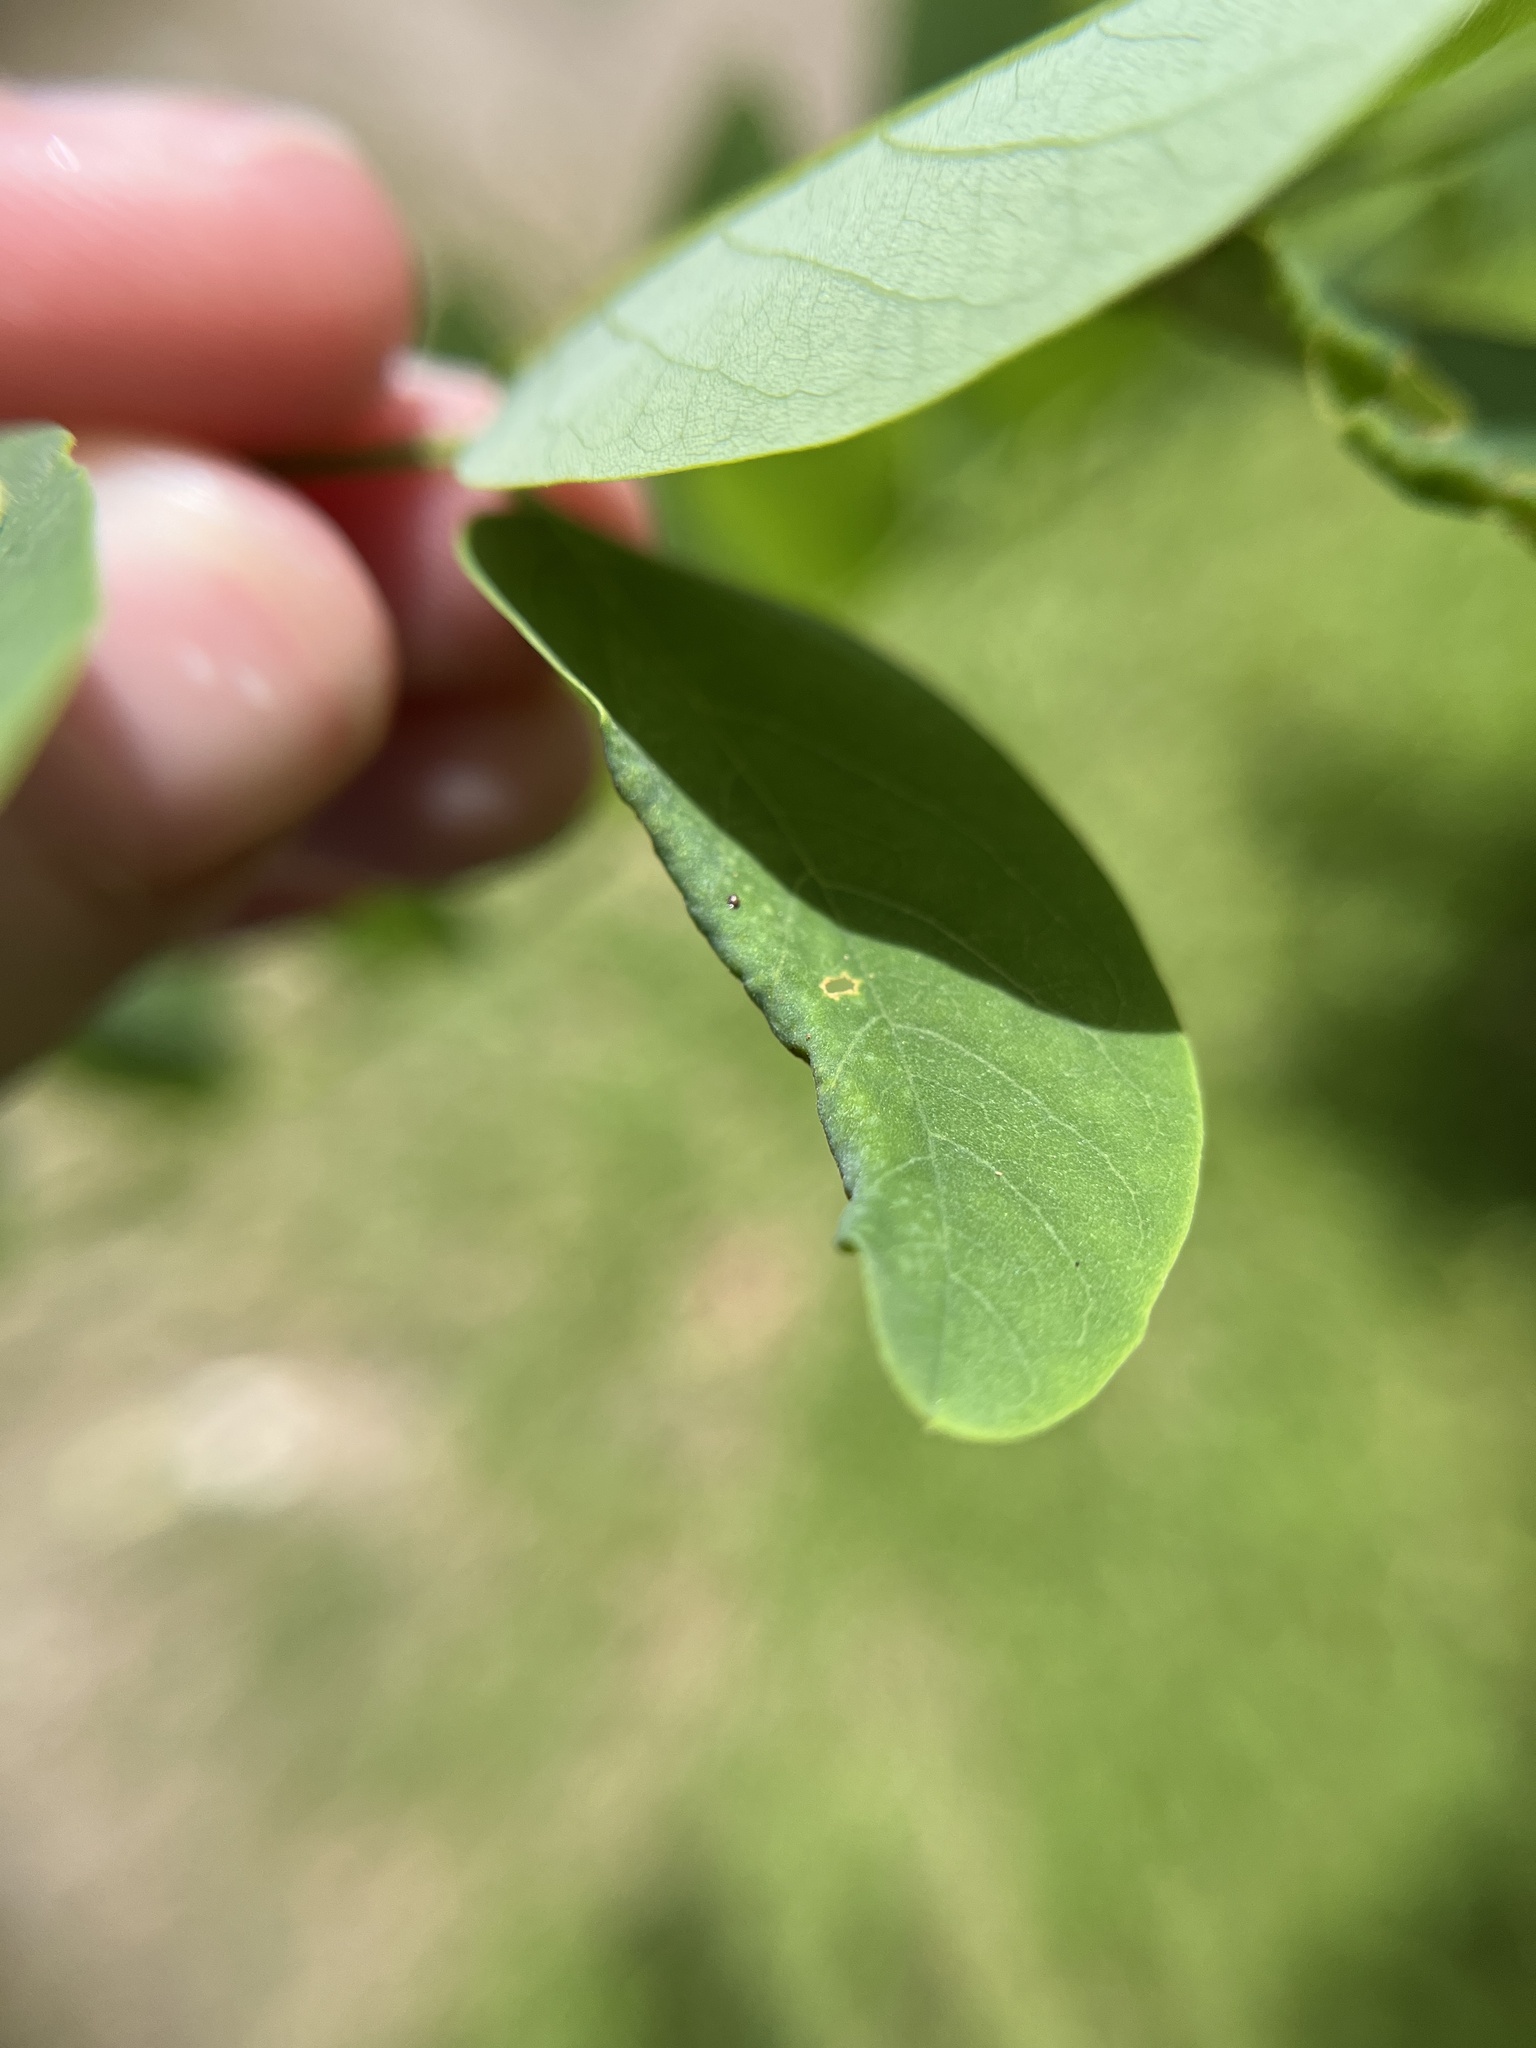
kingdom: Animalia
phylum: Arthropoda
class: Insecta
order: Diptera
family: Cecidomyiidae
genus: Obolodiplosis
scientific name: Obolodiplosis robiniae
